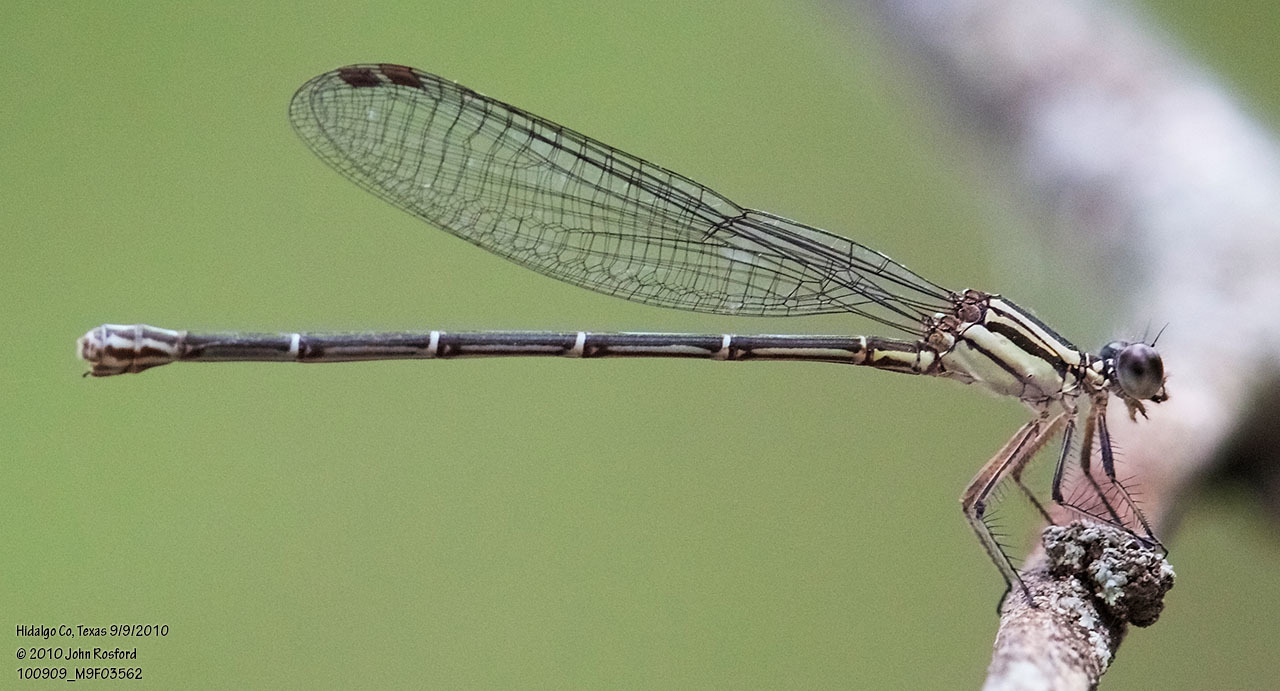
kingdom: Animalia
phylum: Arthropoda
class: Insecta
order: Odonata
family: Coenagrionidae
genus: Argia
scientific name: Argia translata
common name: Dusky dancer
